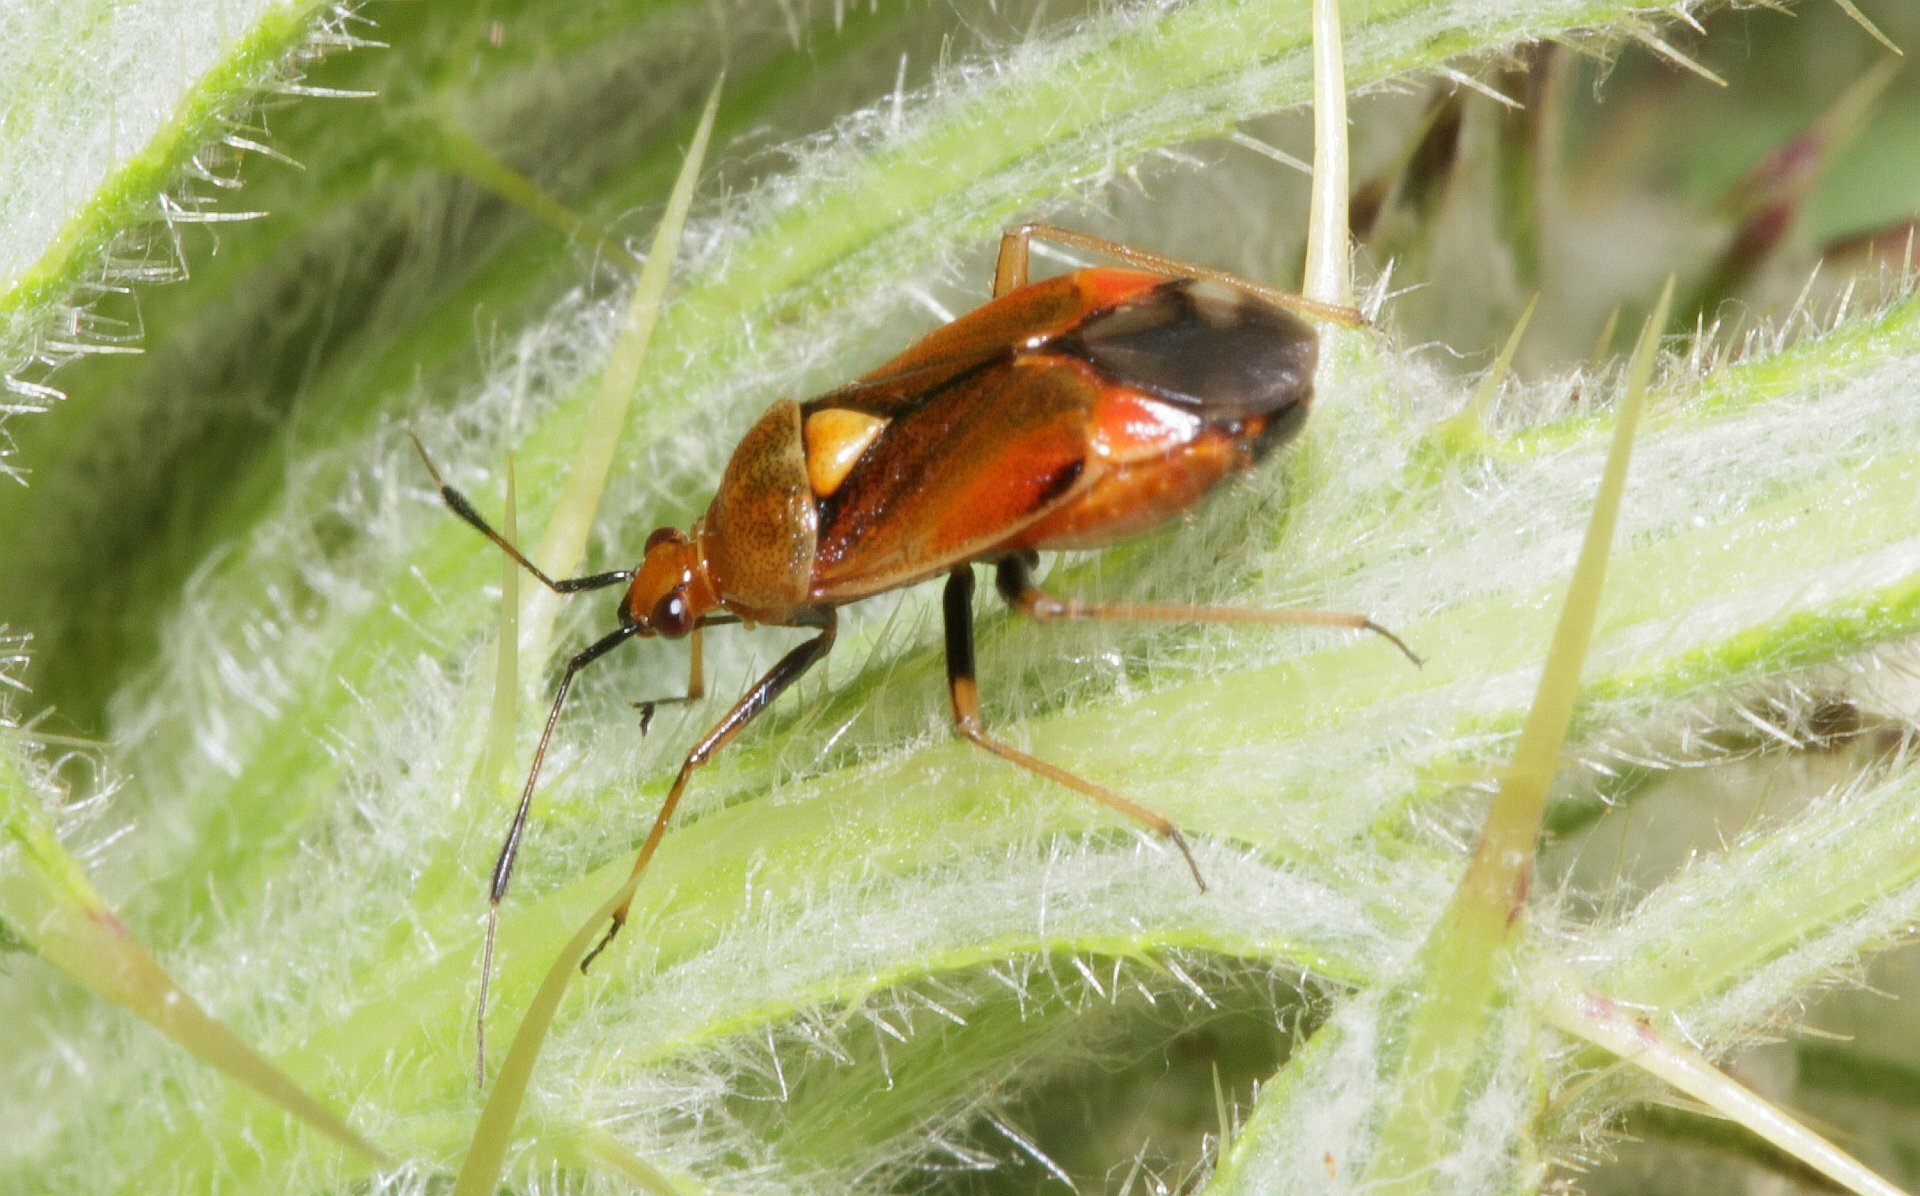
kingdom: Animalia
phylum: Arthropoda
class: Insecta
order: Hemiptera
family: Miridae
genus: Deraeocoris
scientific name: Deraeocoris ruber
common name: Plant bug
